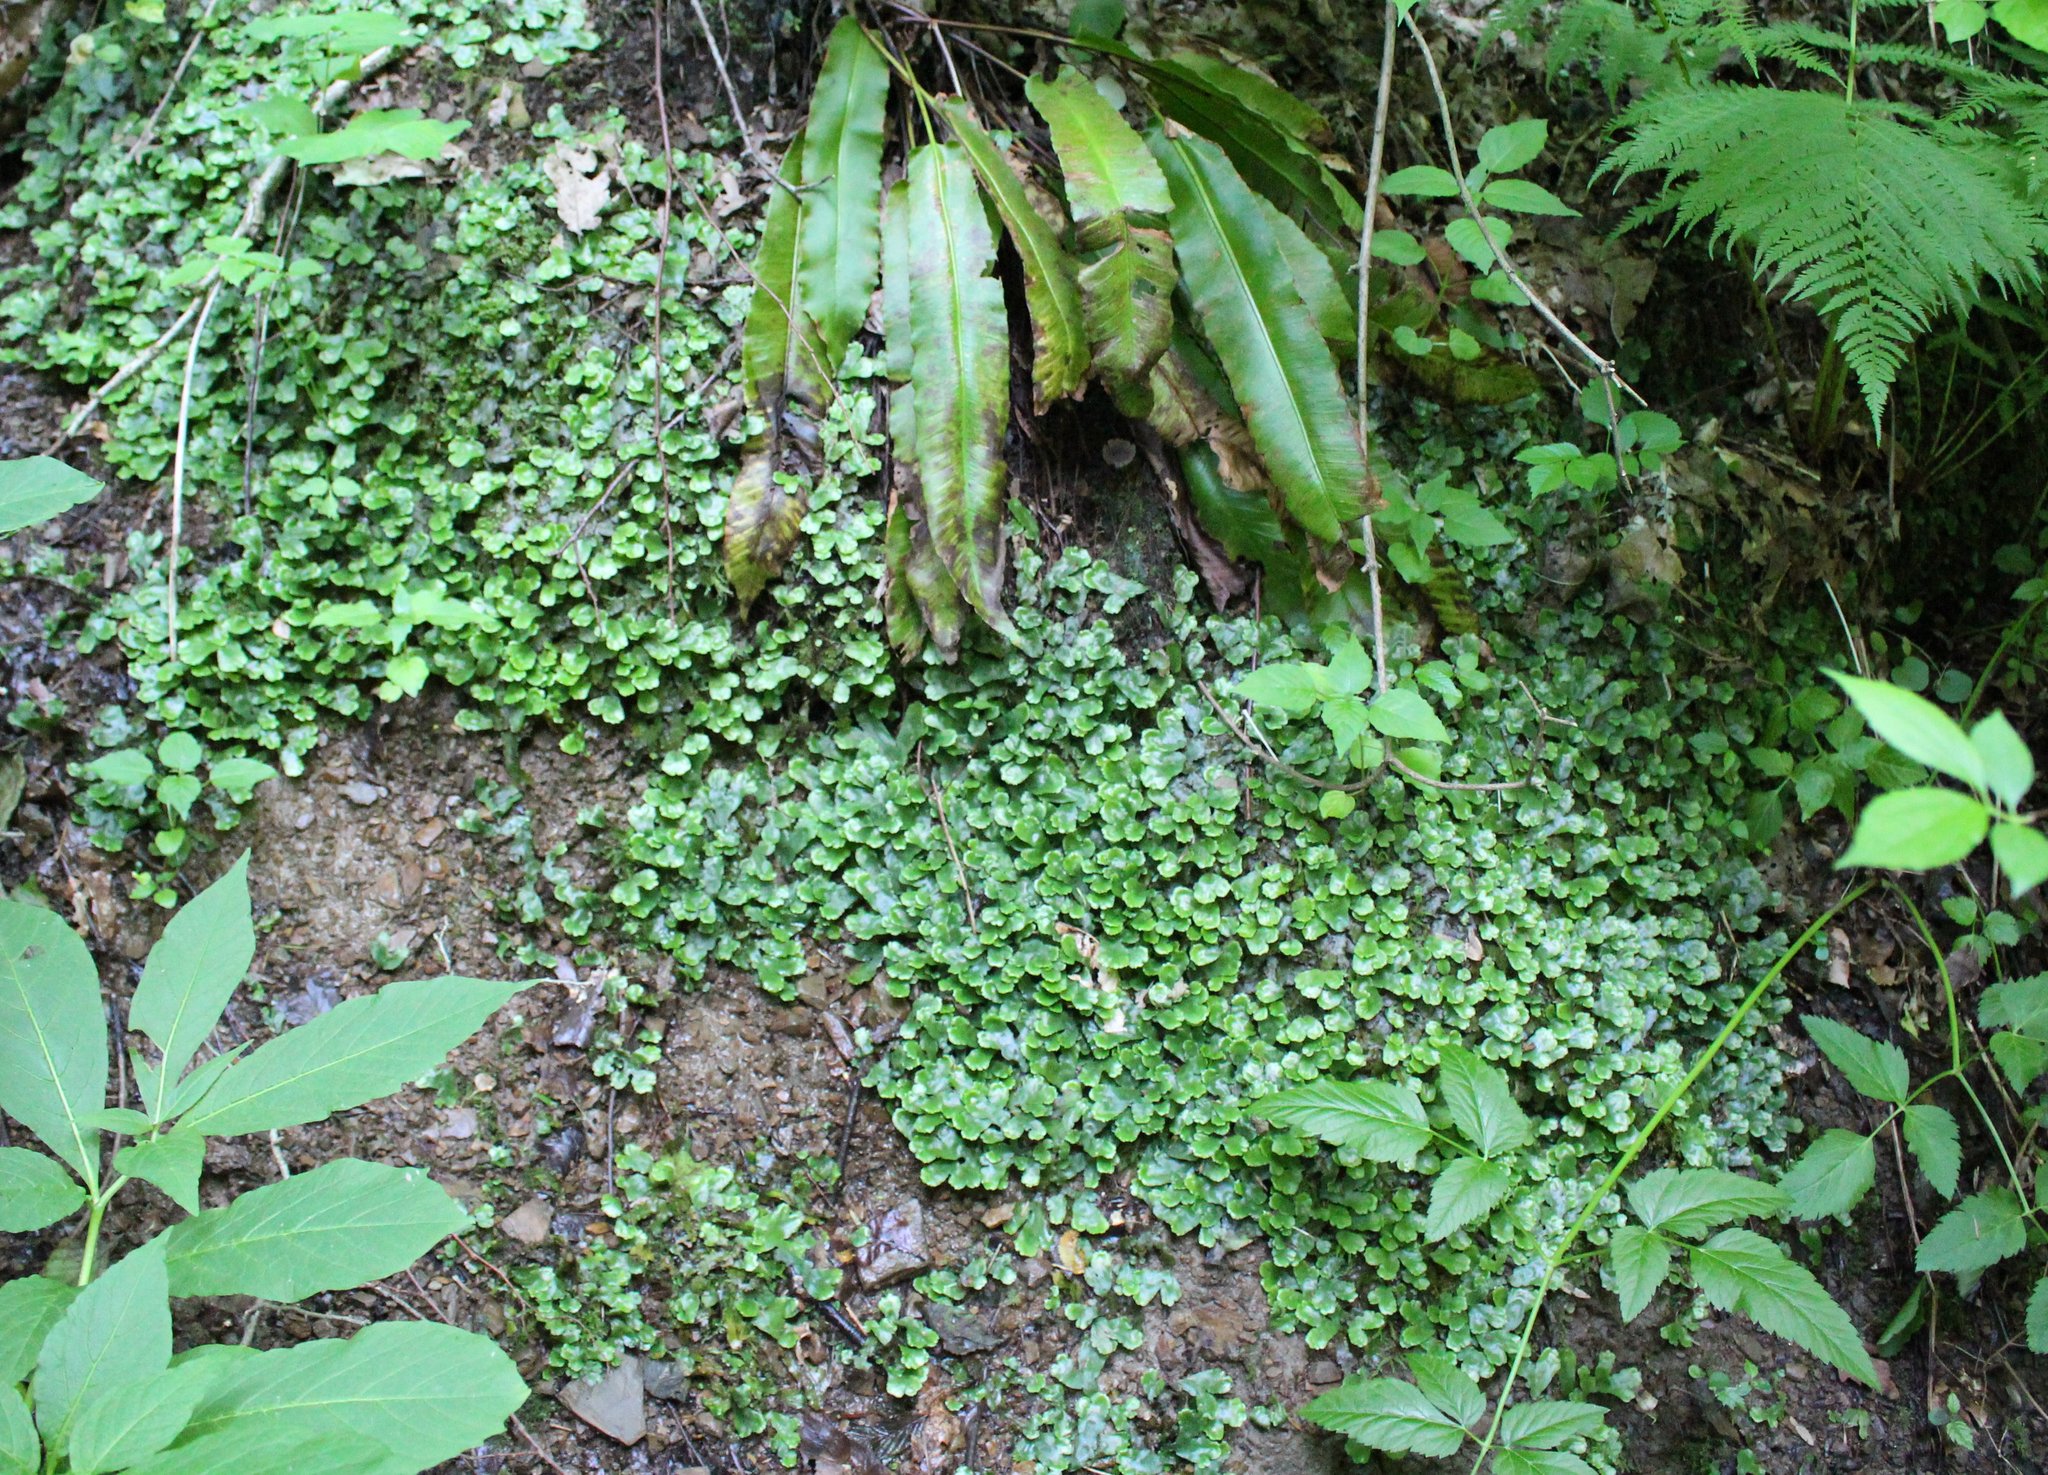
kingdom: Plantae
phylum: Marchantiophyta
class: Marchantiopsida
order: Marchantiales
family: Conocephalaceae
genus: Conocephalum
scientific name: Conocephalum conicum
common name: Great scented liverwort
